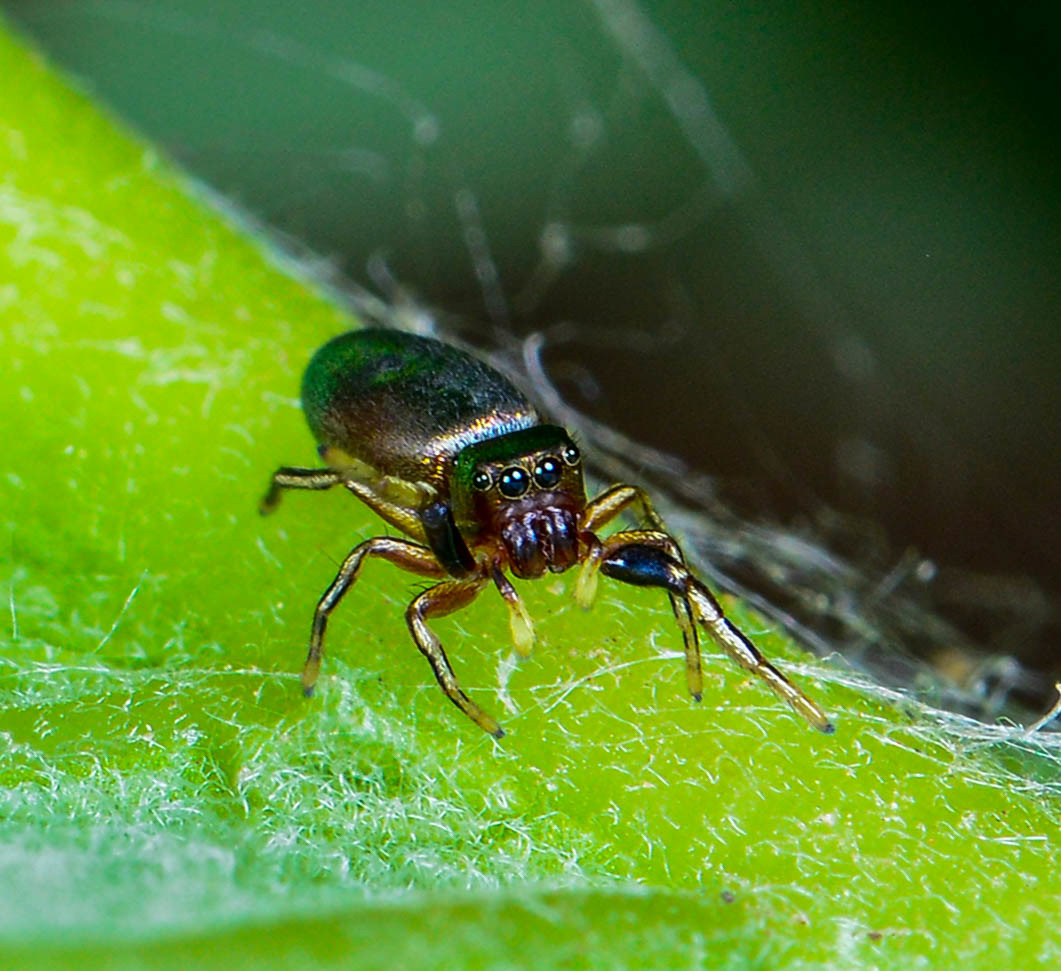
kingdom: Animalia
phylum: Arthropoda
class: Arachnida
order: Araneae
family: Salticidae
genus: Tutelina
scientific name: Tutelina elegans
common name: Thin-spined jumping spider
